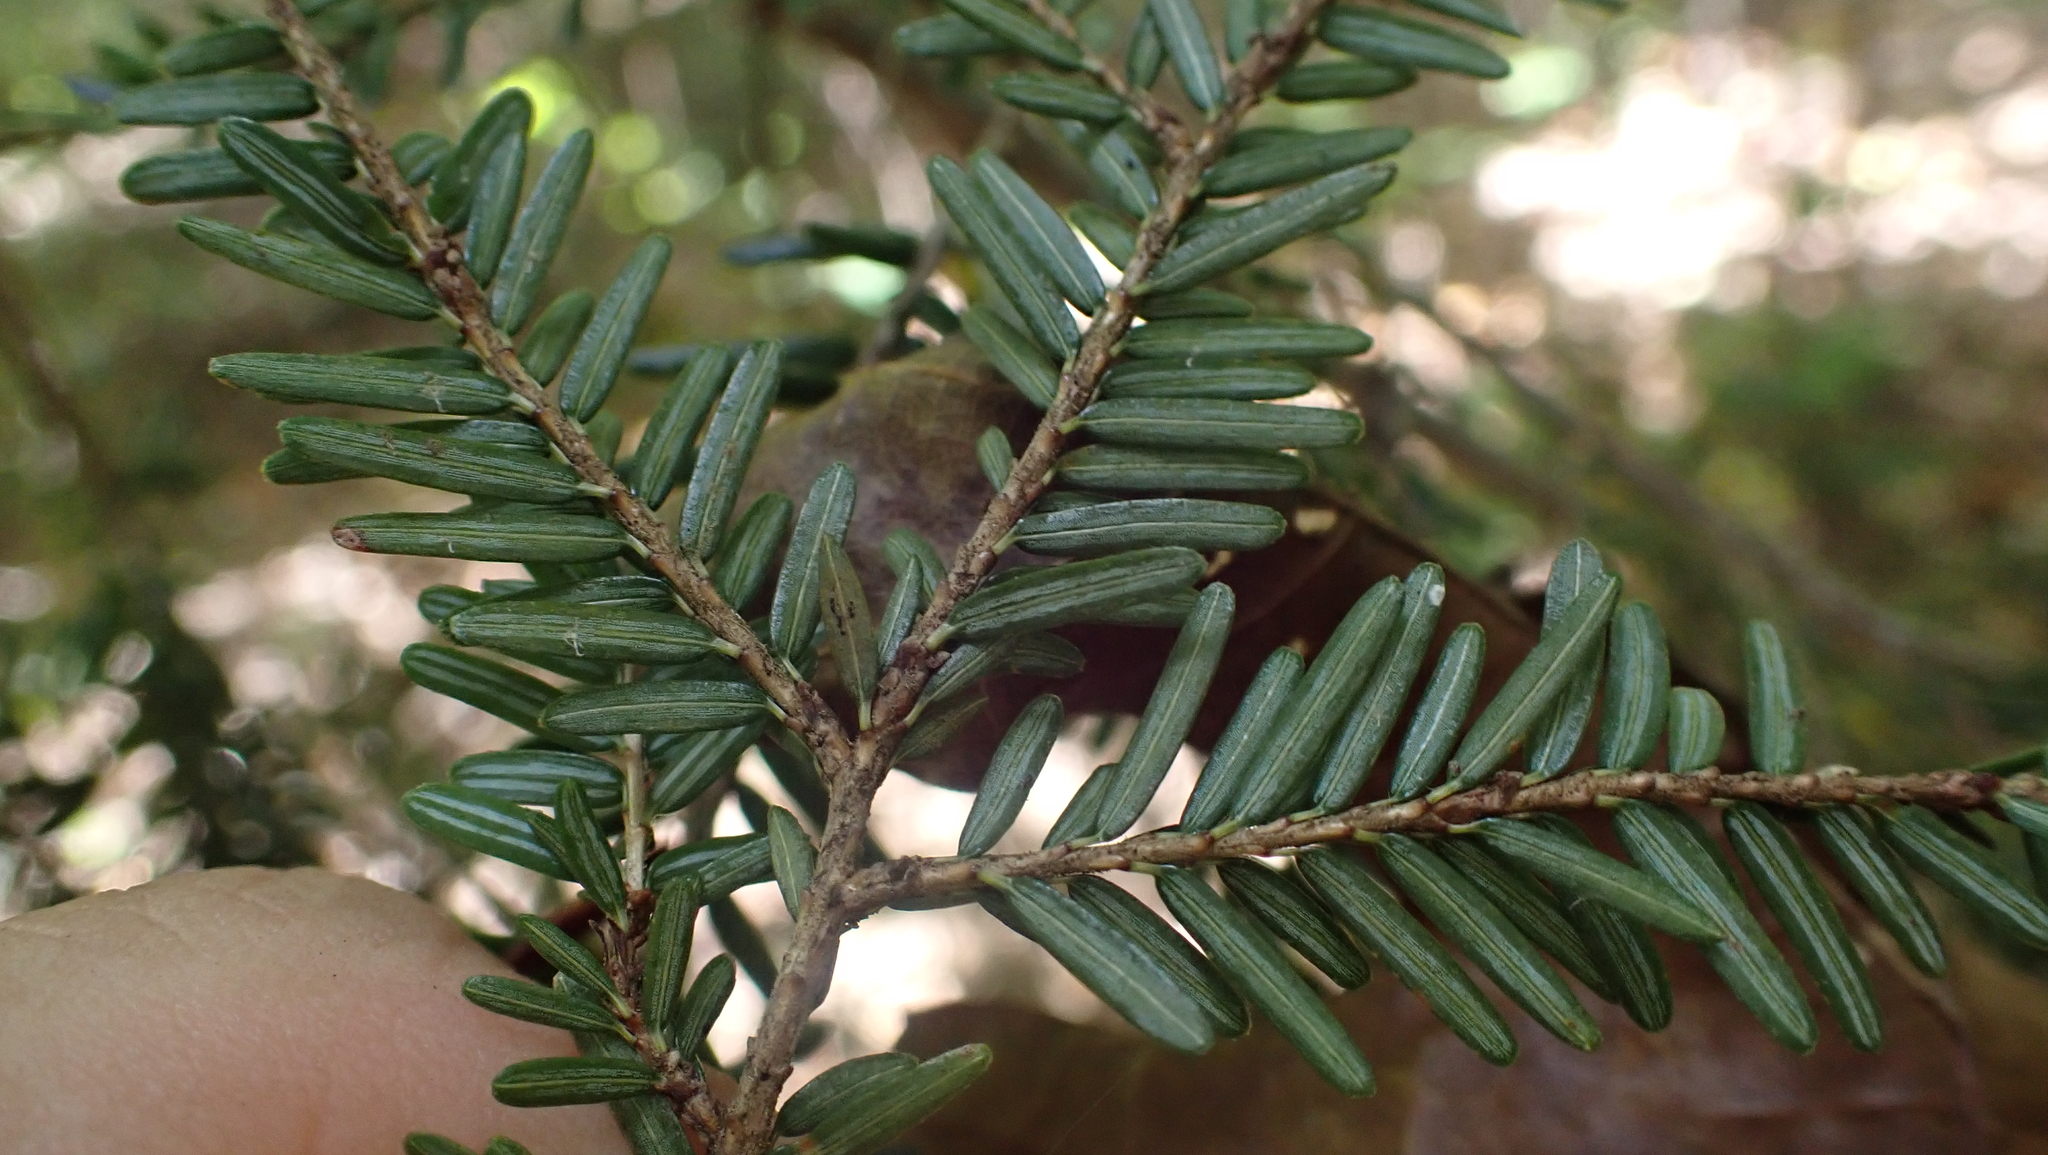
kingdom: Plantae
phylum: Tracheophyta
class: Pinopsida
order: Pinales
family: Pinaceae
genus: Tsuga
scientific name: Tsuga canadensis
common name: Eastern hemlock
